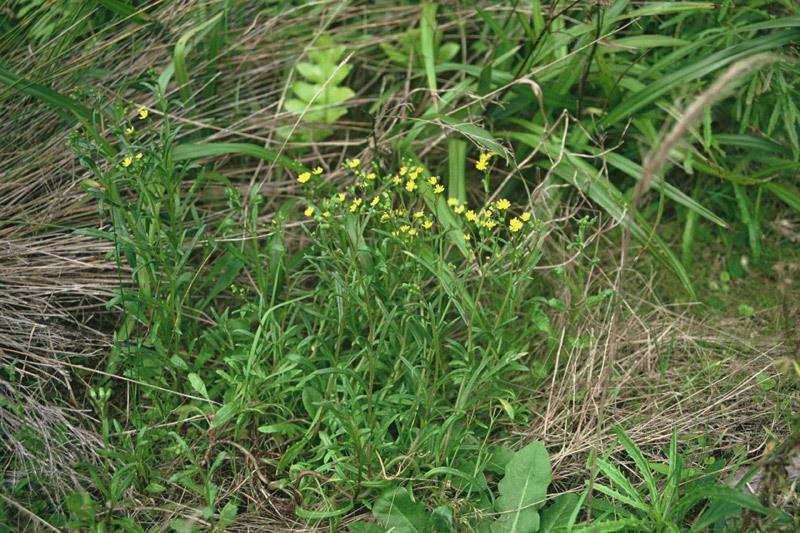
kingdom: Plantae
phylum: Tracheophyta
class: Magnoliopsida
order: Asterales
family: Asteraceae
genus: Senecio
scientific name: Senecio marotiri
